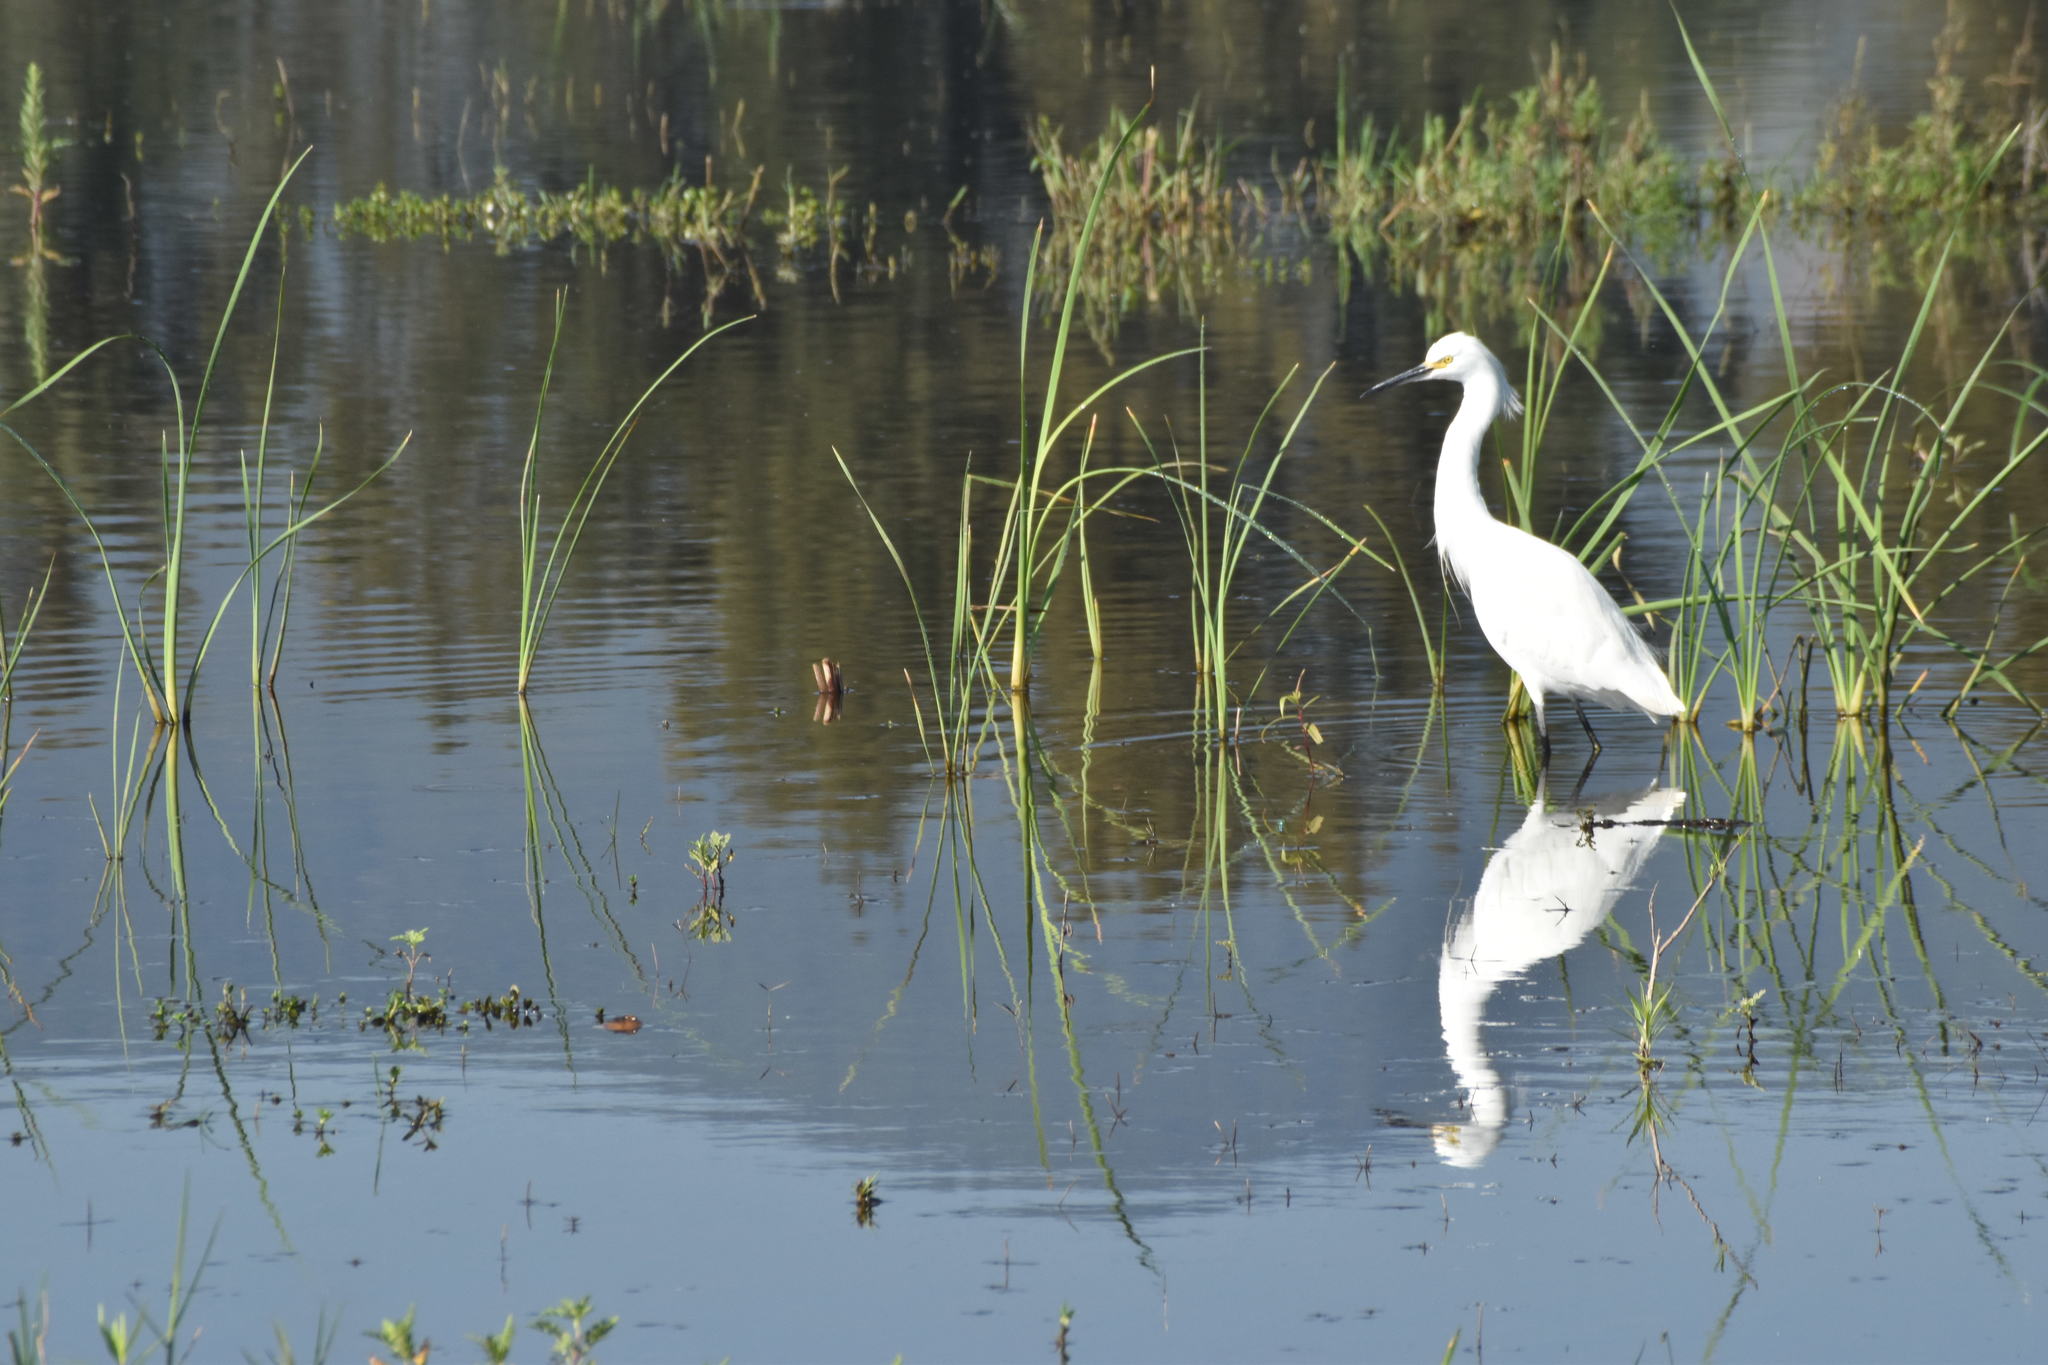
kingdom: Animalia
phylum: Chordata
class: Aves
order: Pelecaniformes
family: Ardeidae
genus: Egretta
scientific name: Egretta thula
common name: Snowy egret
